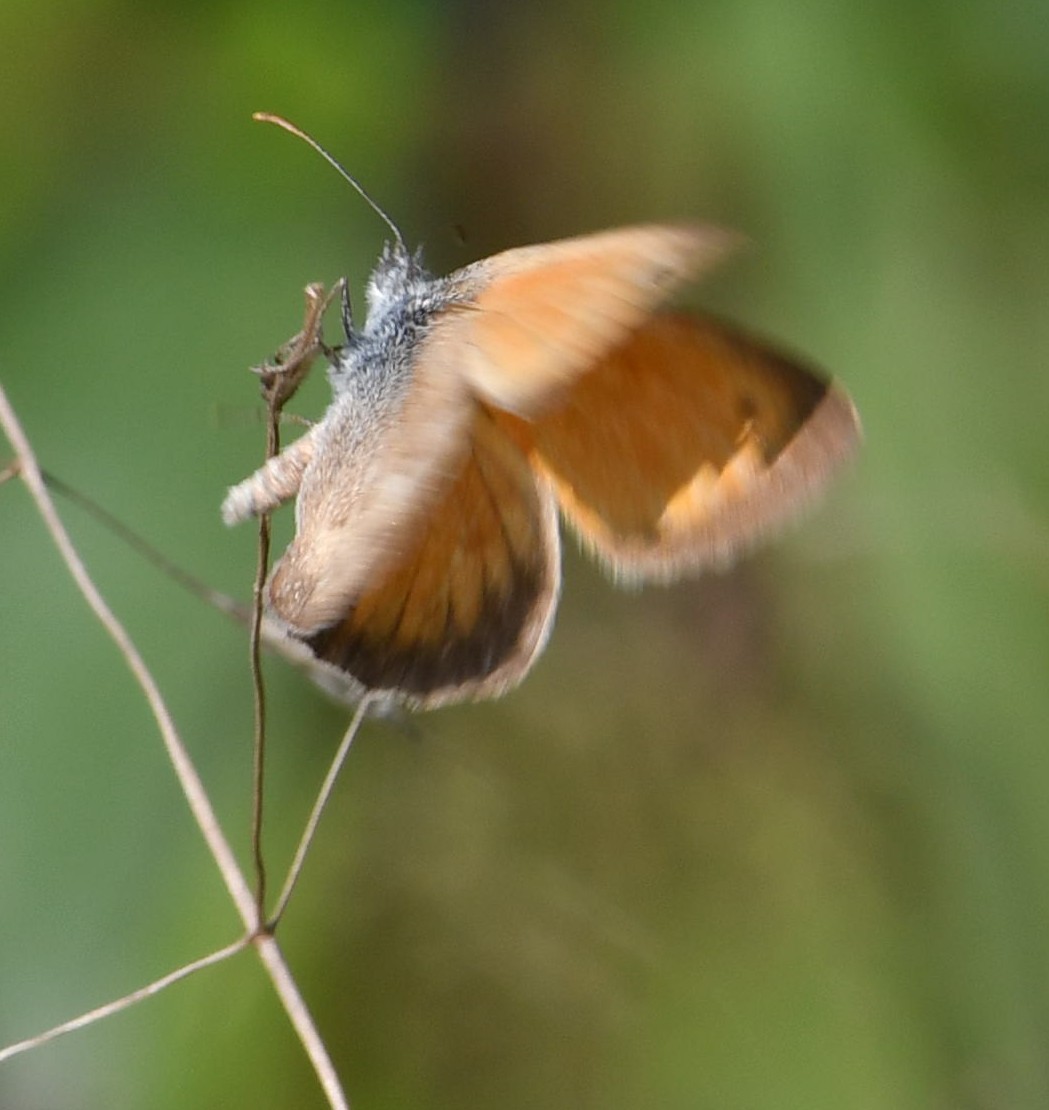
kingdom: Animalia
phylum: Arthropoda
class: Insecta
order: Lepidoptera
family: Nymphalidae
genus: Coenonympha
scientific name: Coenonympha pamphilus
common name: Small heath
